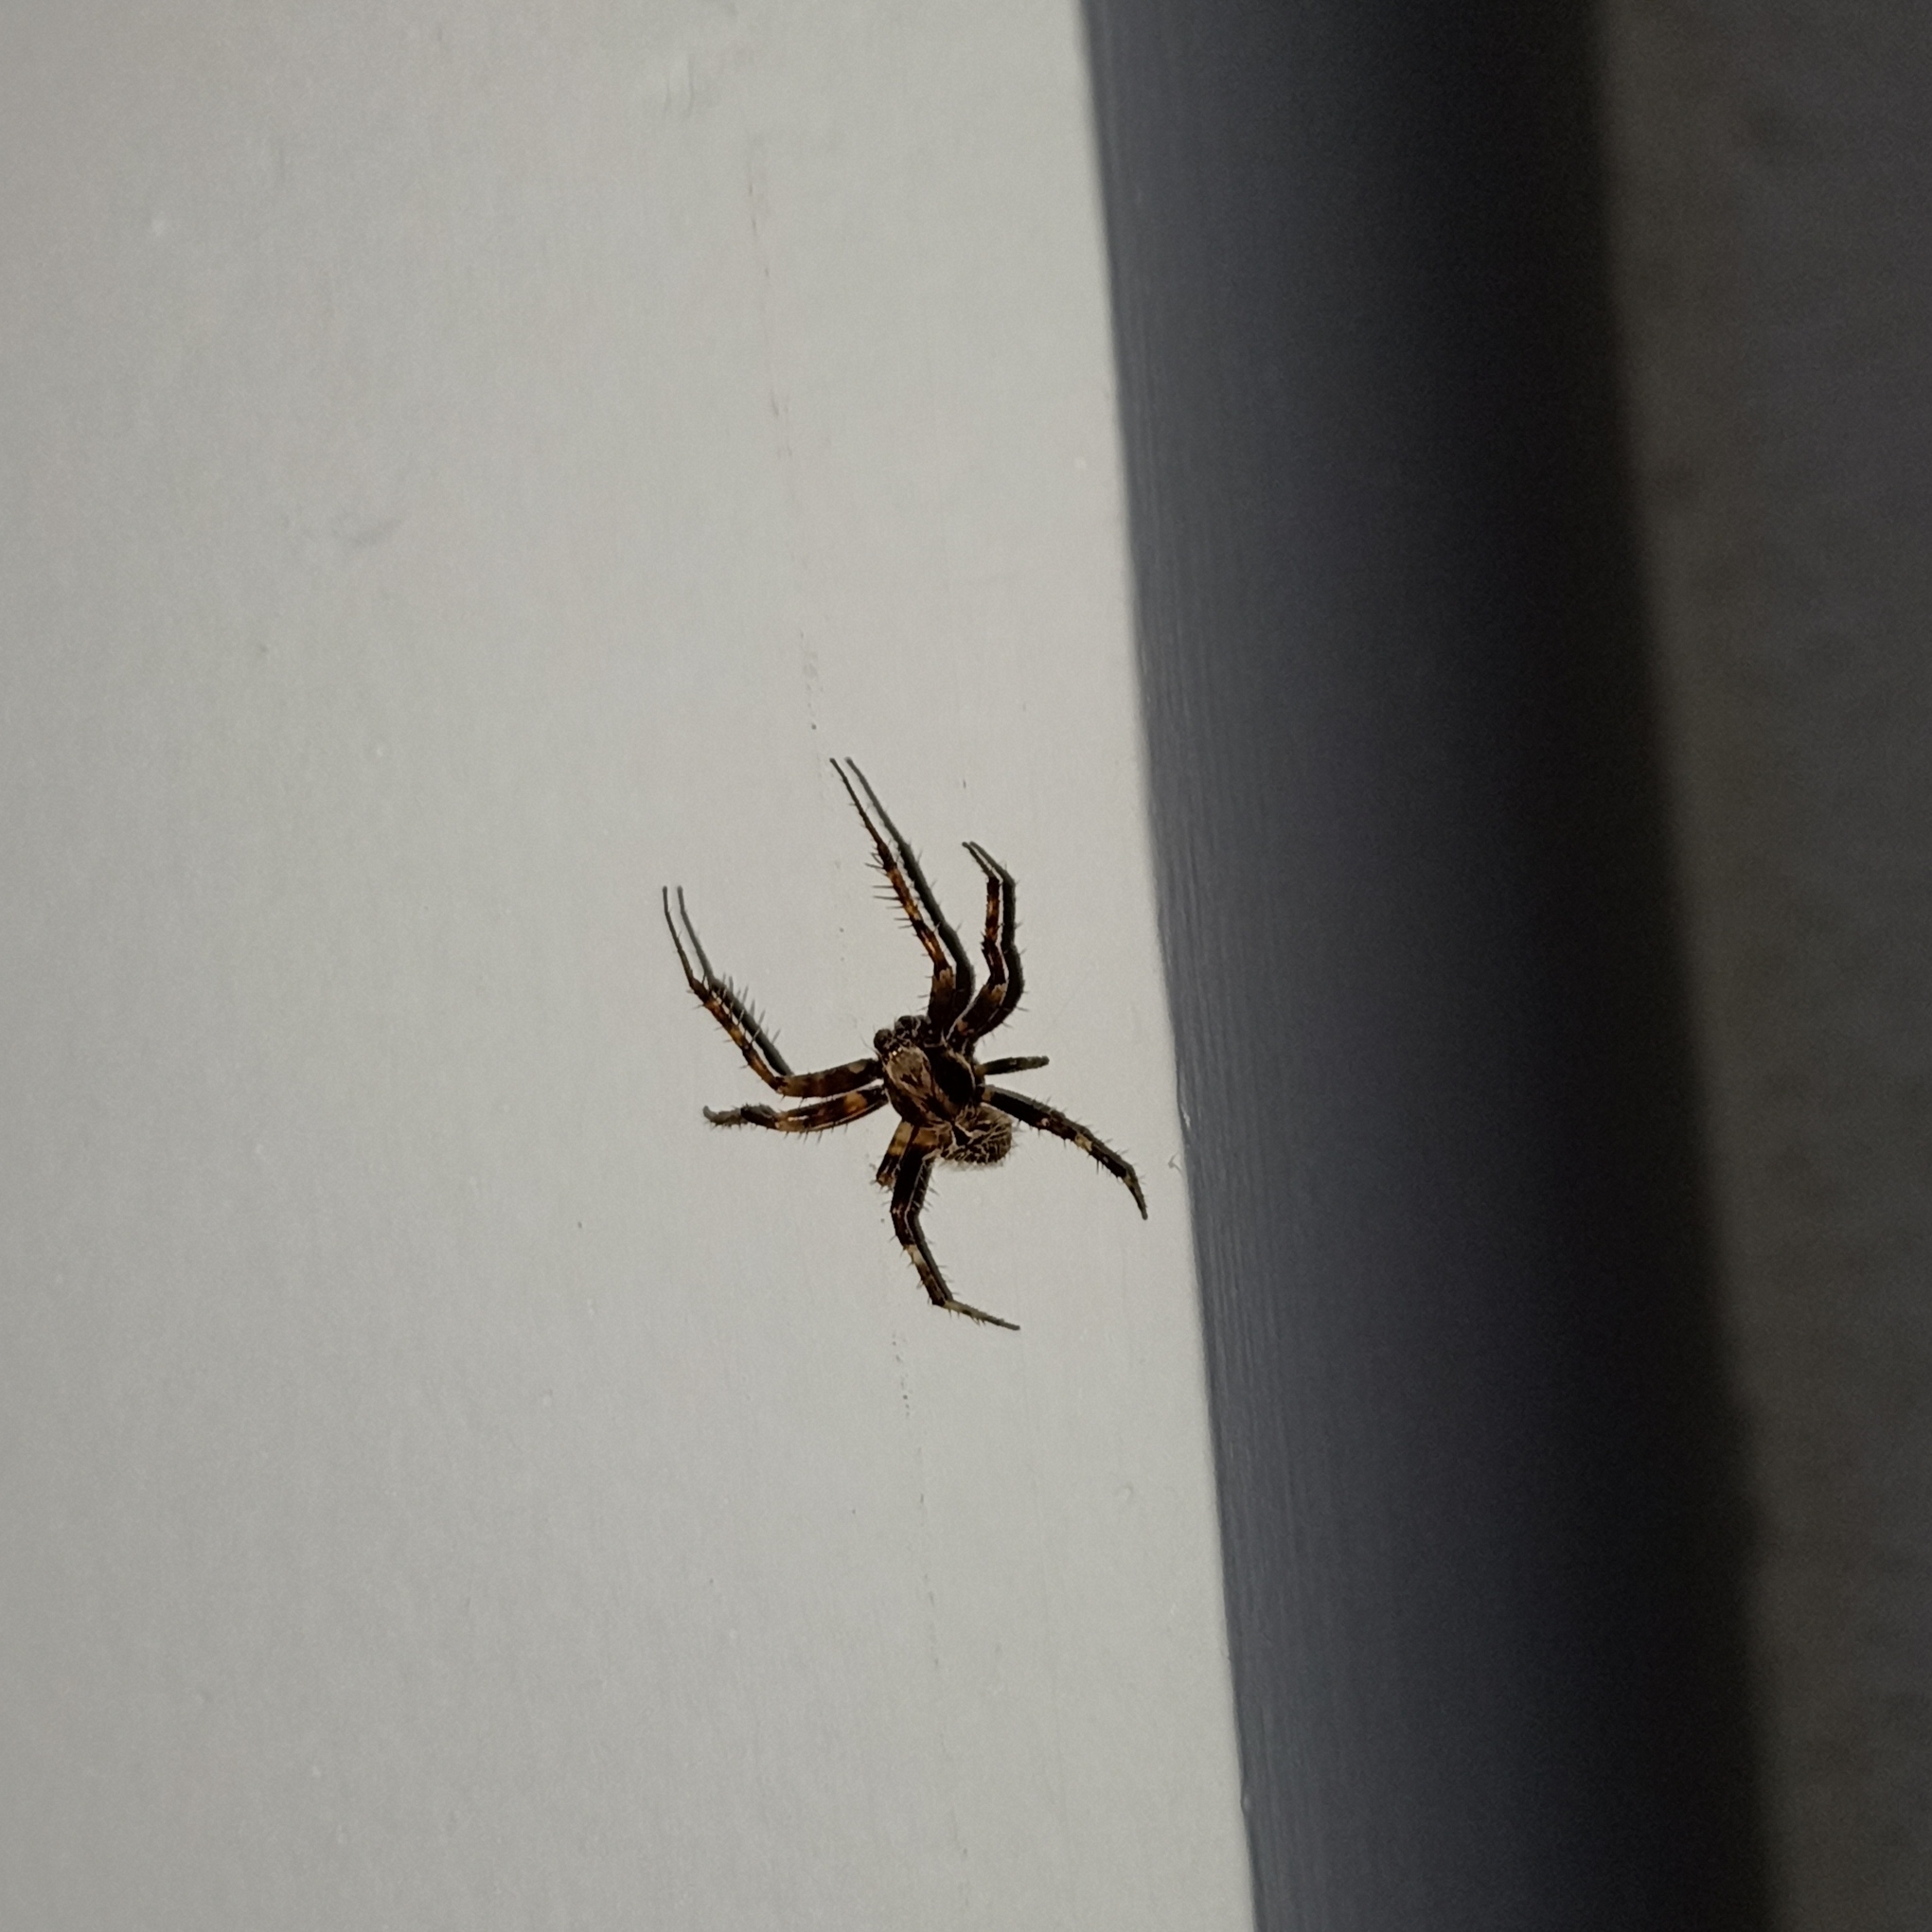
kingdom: Animalia
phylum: Arthropoda
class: Arachnida
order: Araneae
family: Araneidae
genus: Neoscona
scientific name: Neoscona mukerjei
